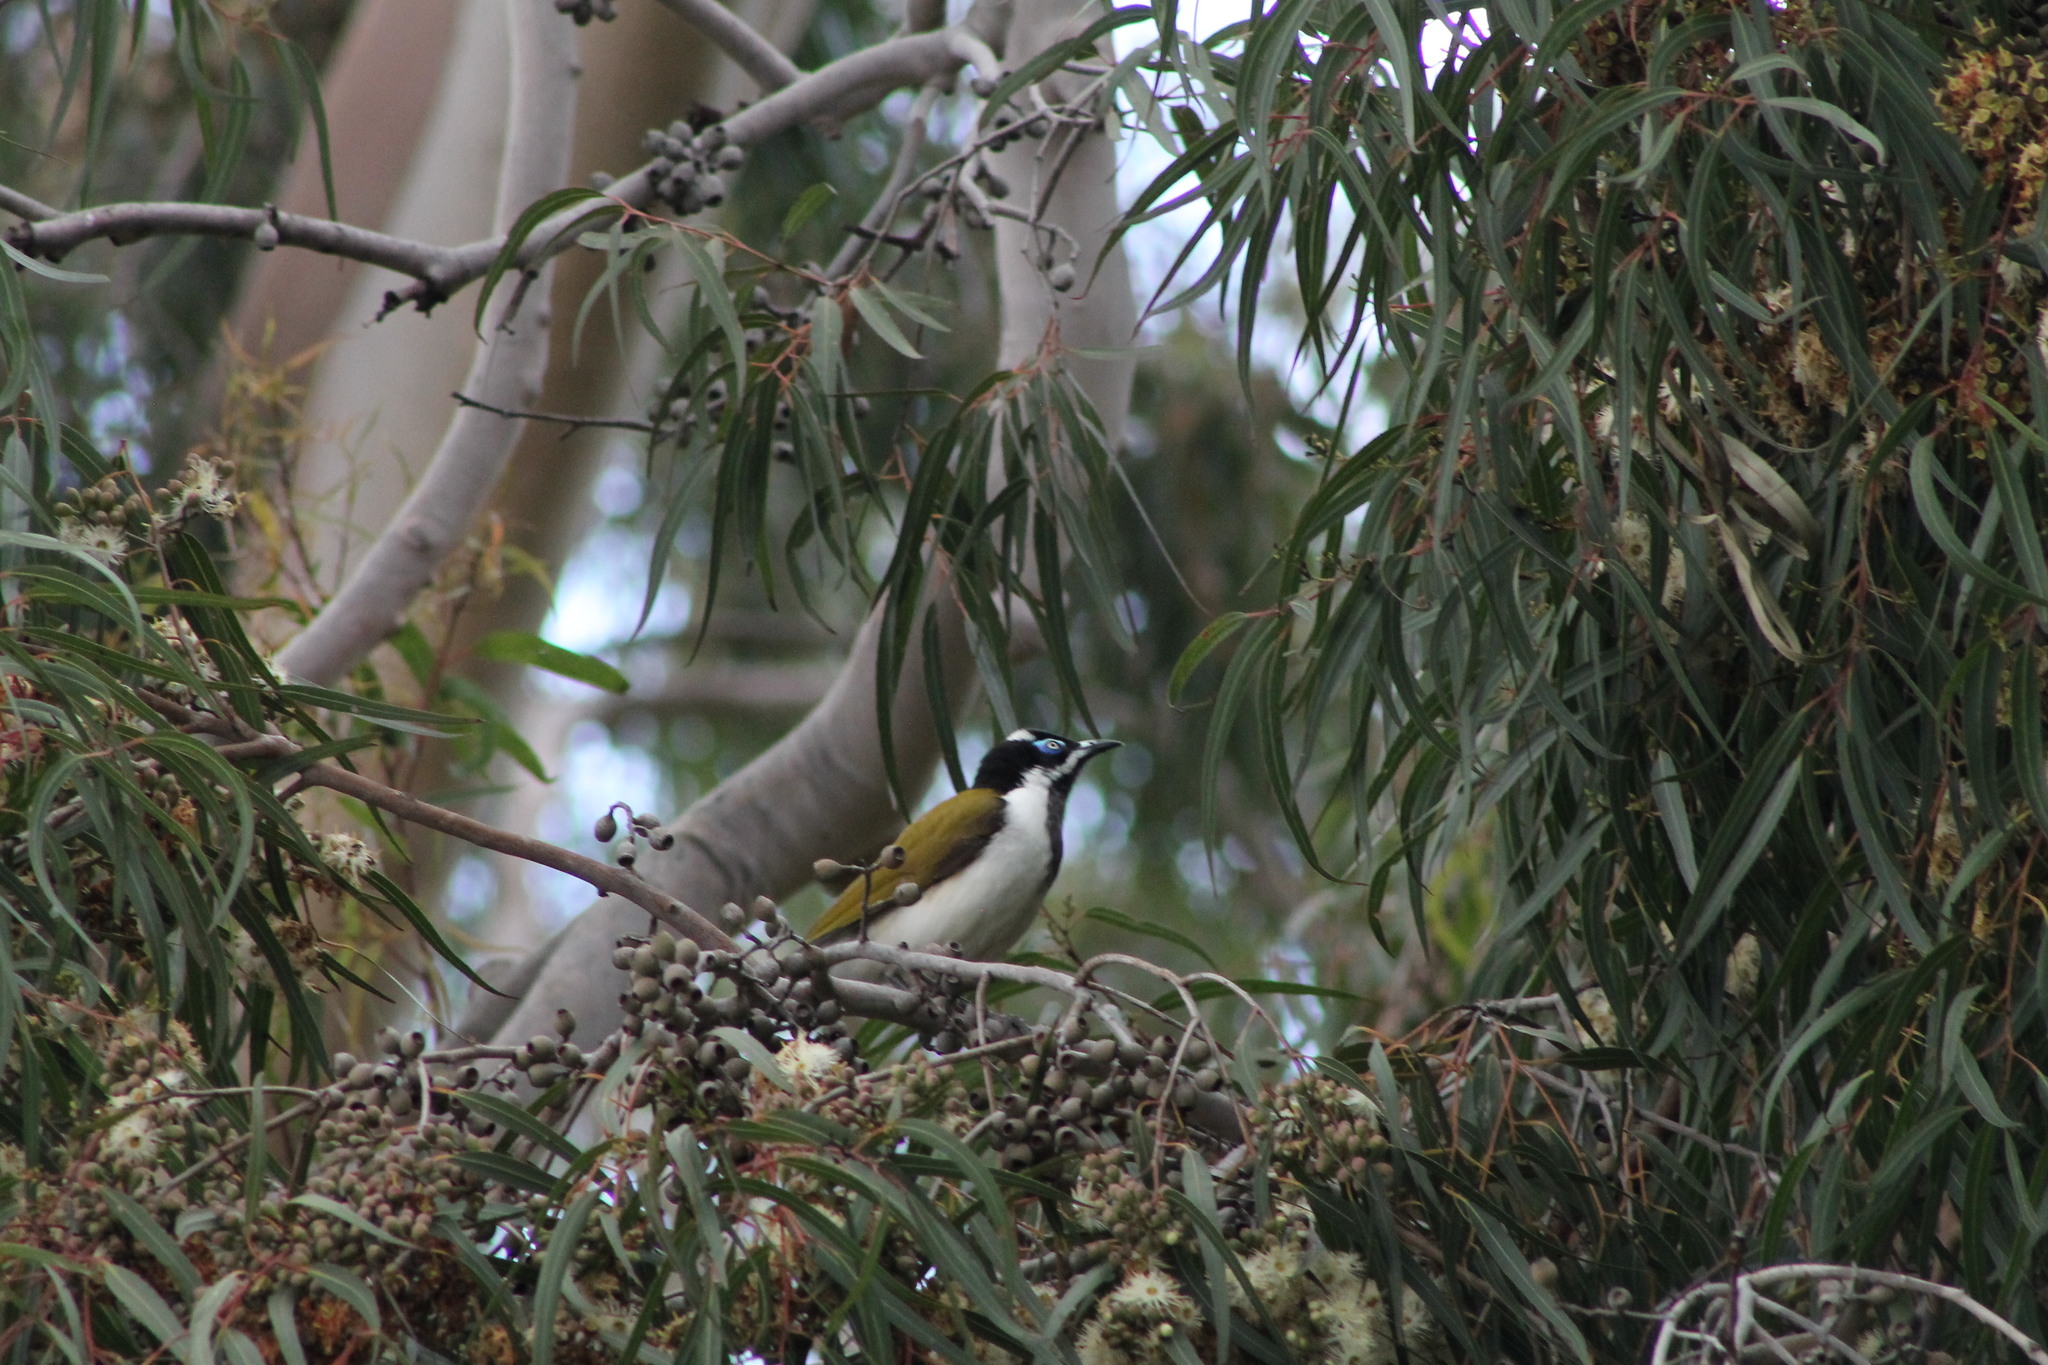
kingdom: Animalia
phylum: Chordata
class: Aves
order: Passeriformes
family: Meliphagidae
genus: Entomyzon
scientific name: Entomyzon cyanotis
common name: Blue-faced honeyeater
